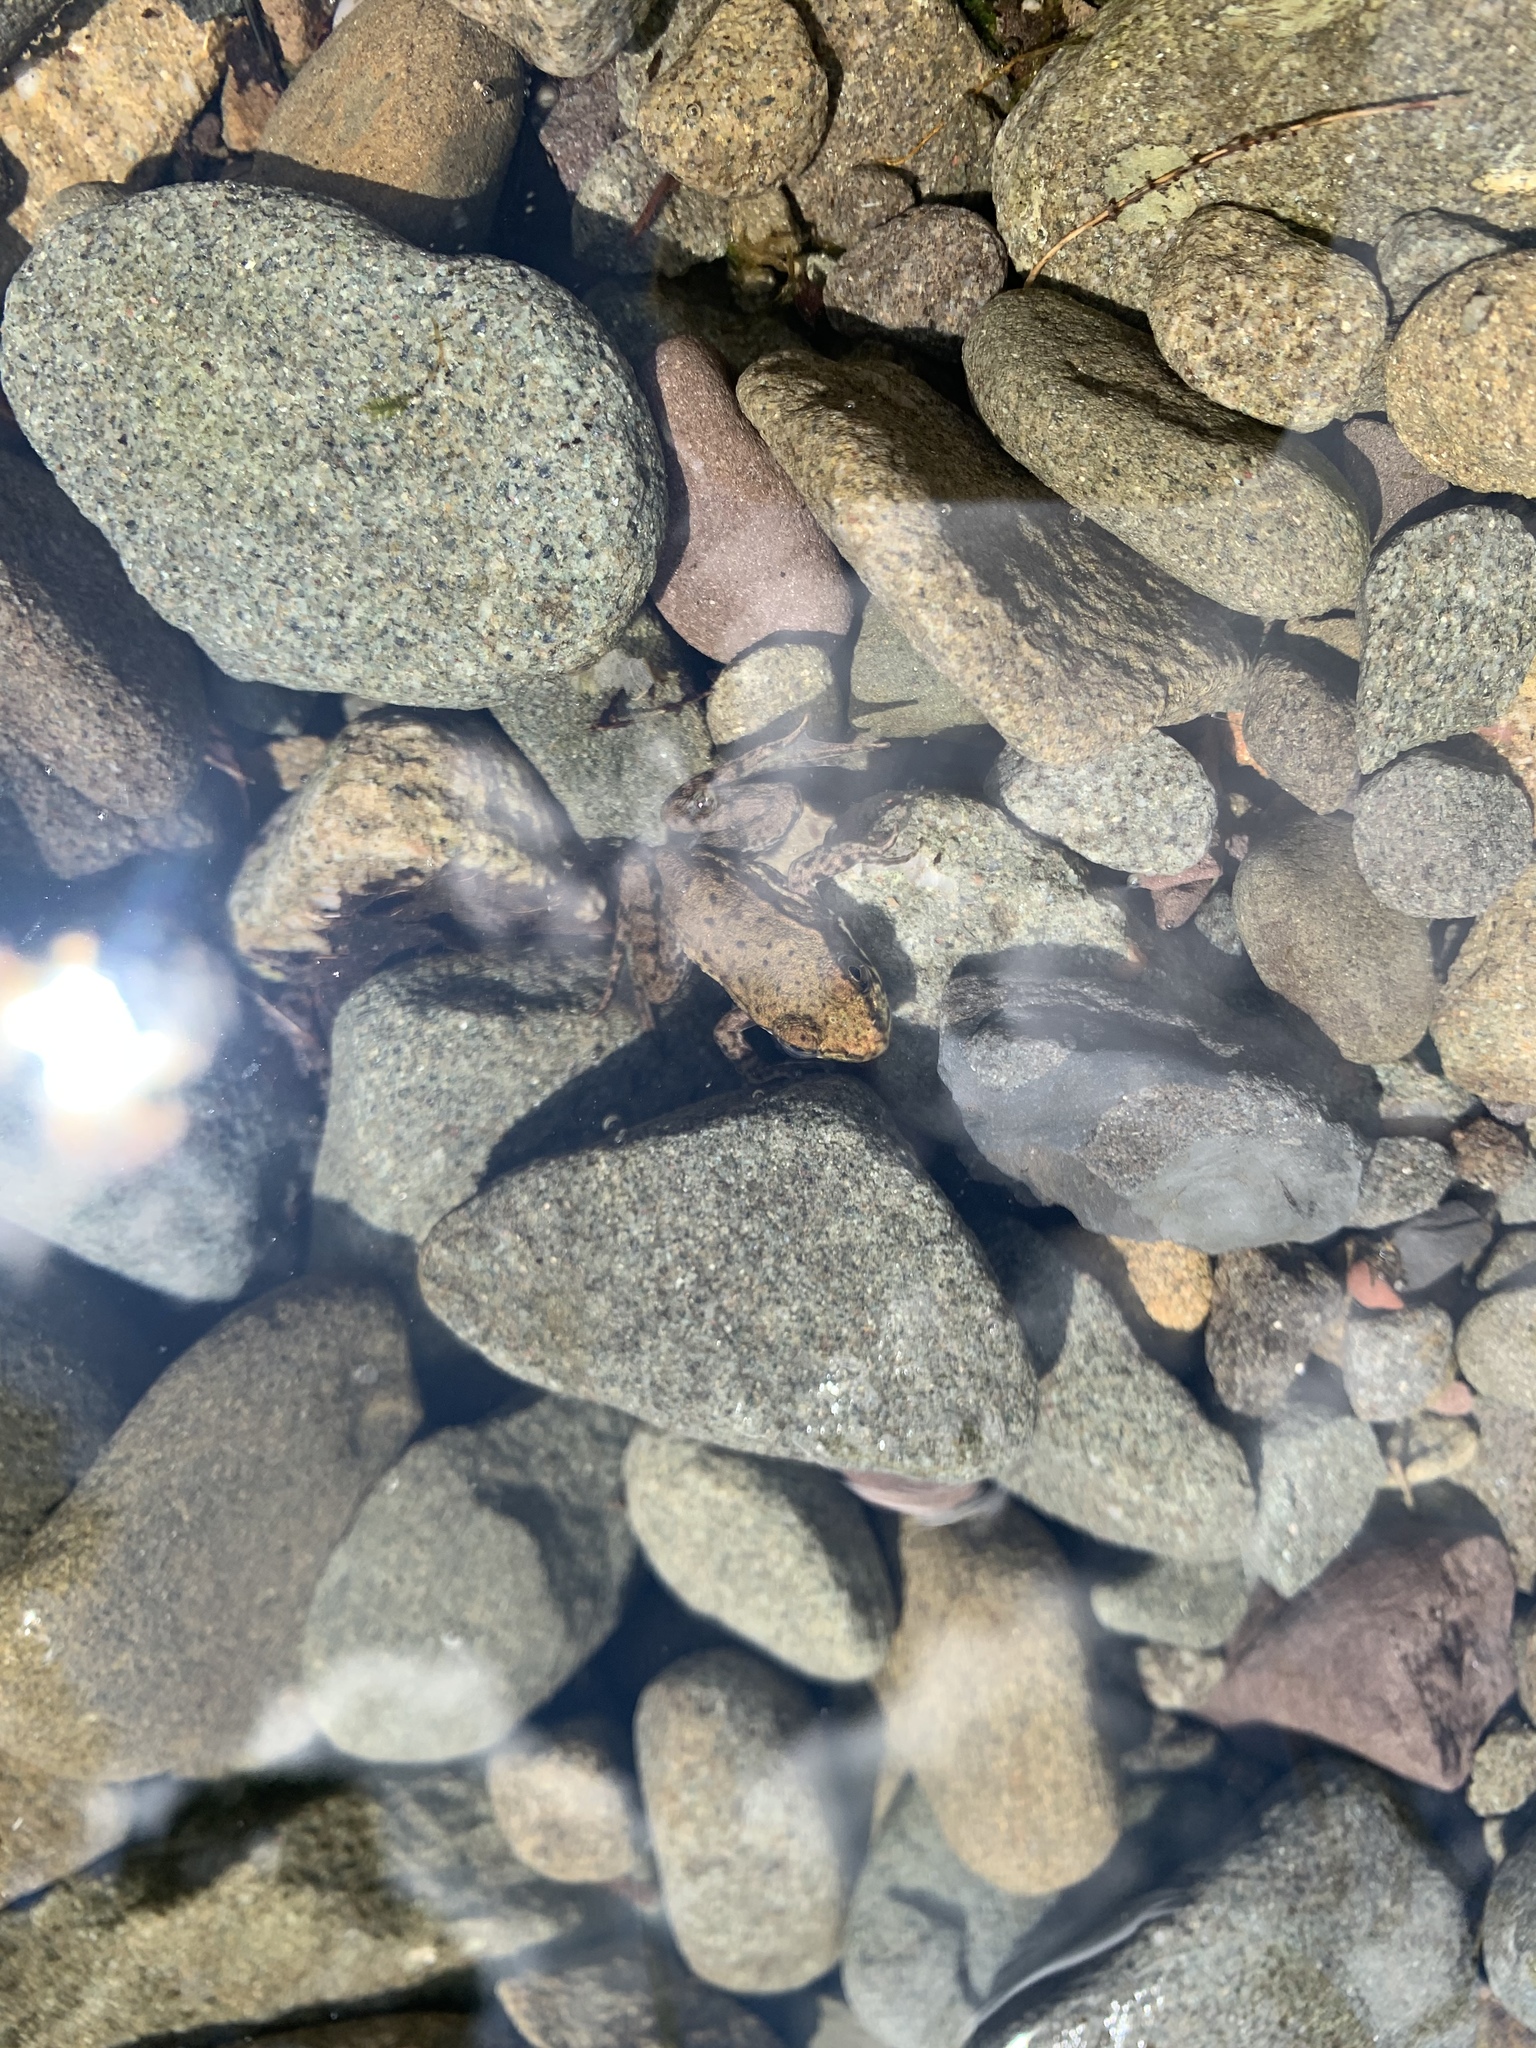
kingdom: Animalia
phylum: Chordata
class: Amphibia
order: Anura
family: Ranidae
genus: Lithobates
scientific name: Lithobates clamitans
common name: Green frog
